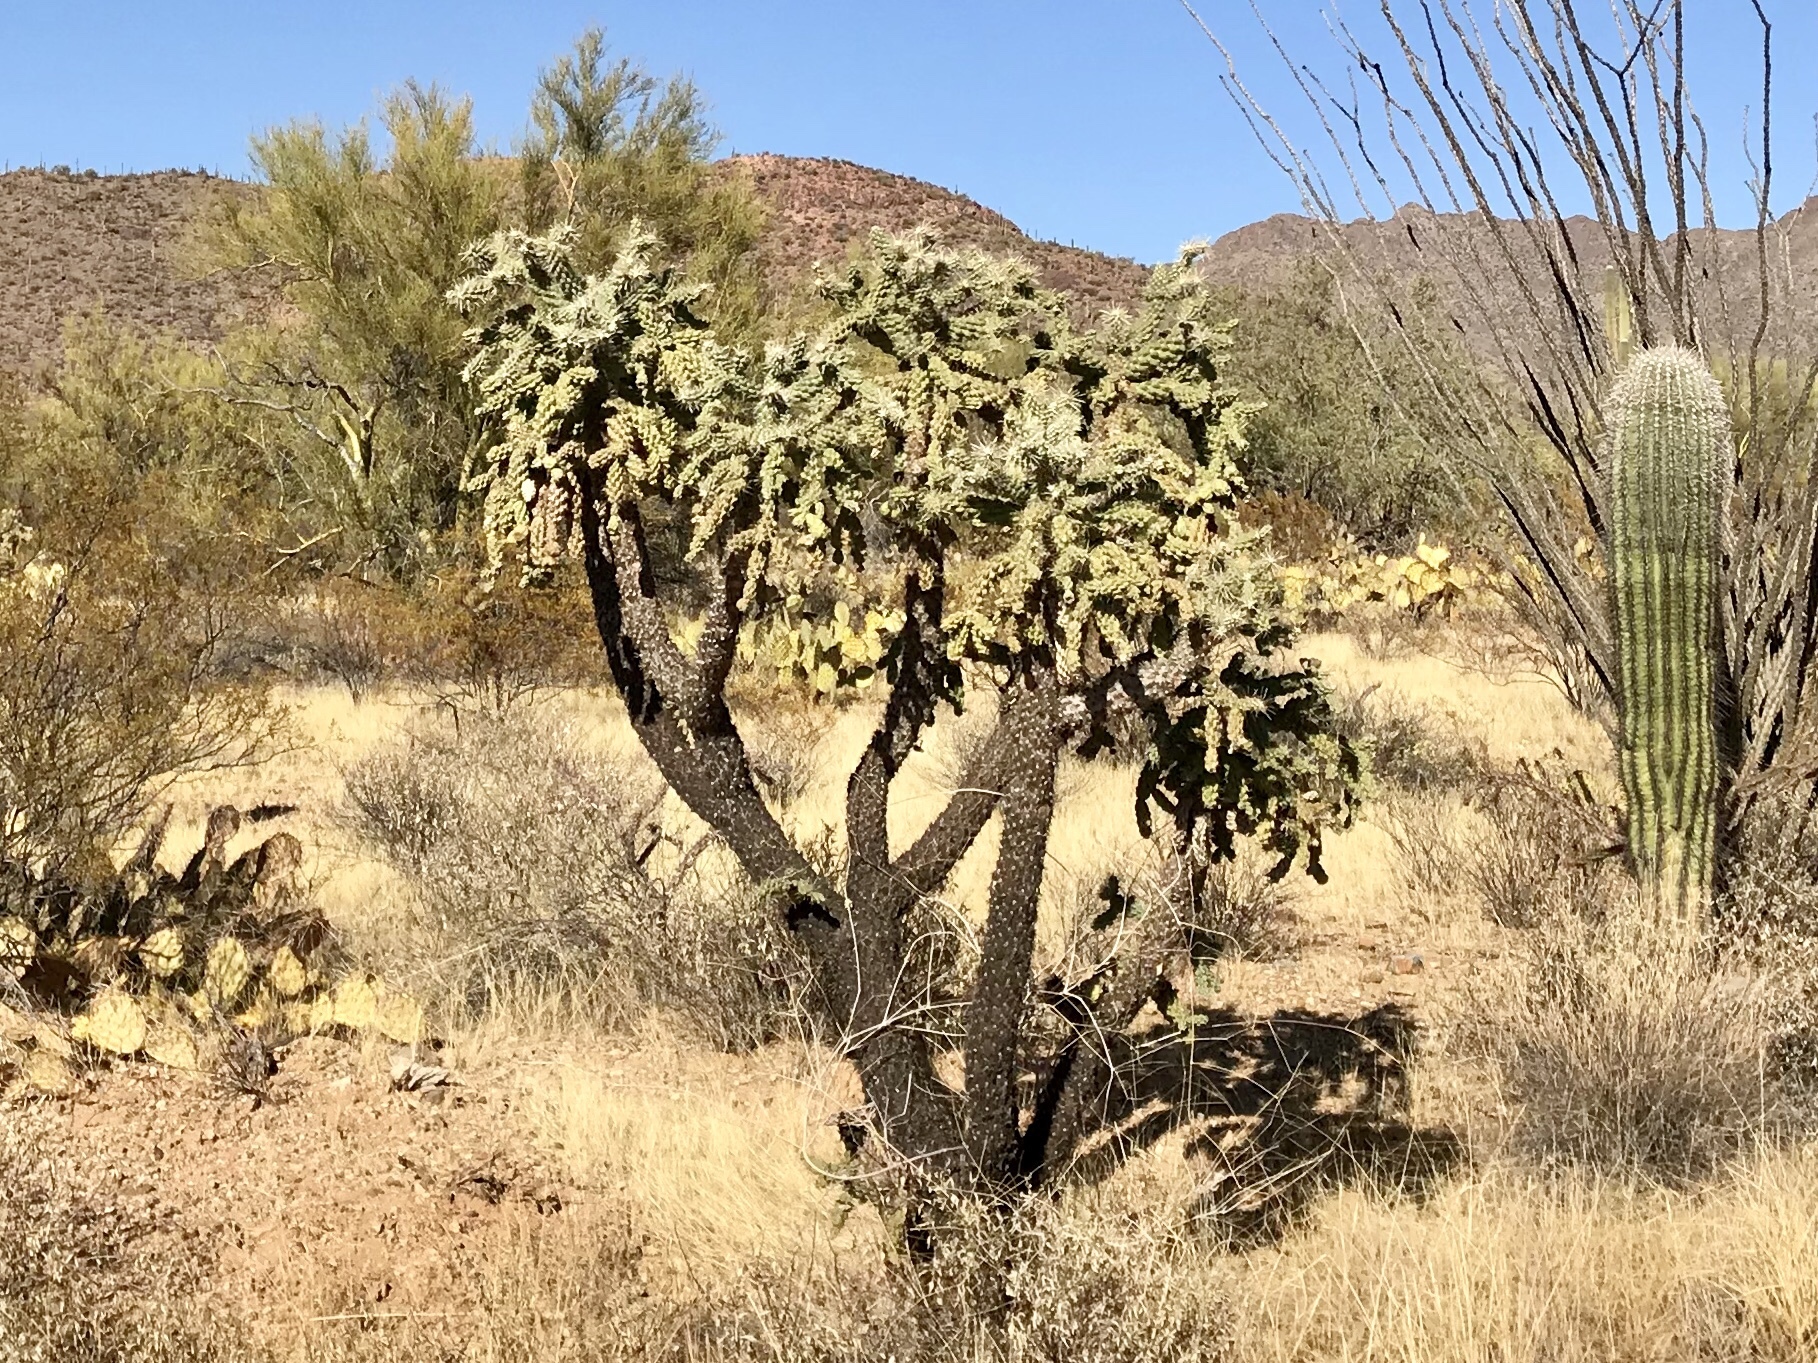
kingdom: Plantae
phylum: Tracheophyta
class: Magnoliopsida
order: Caryophyllales
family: Cactaceae
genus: Cylindropuntia
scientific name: Cylindropuntia fulgida
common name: Jumping cholla
